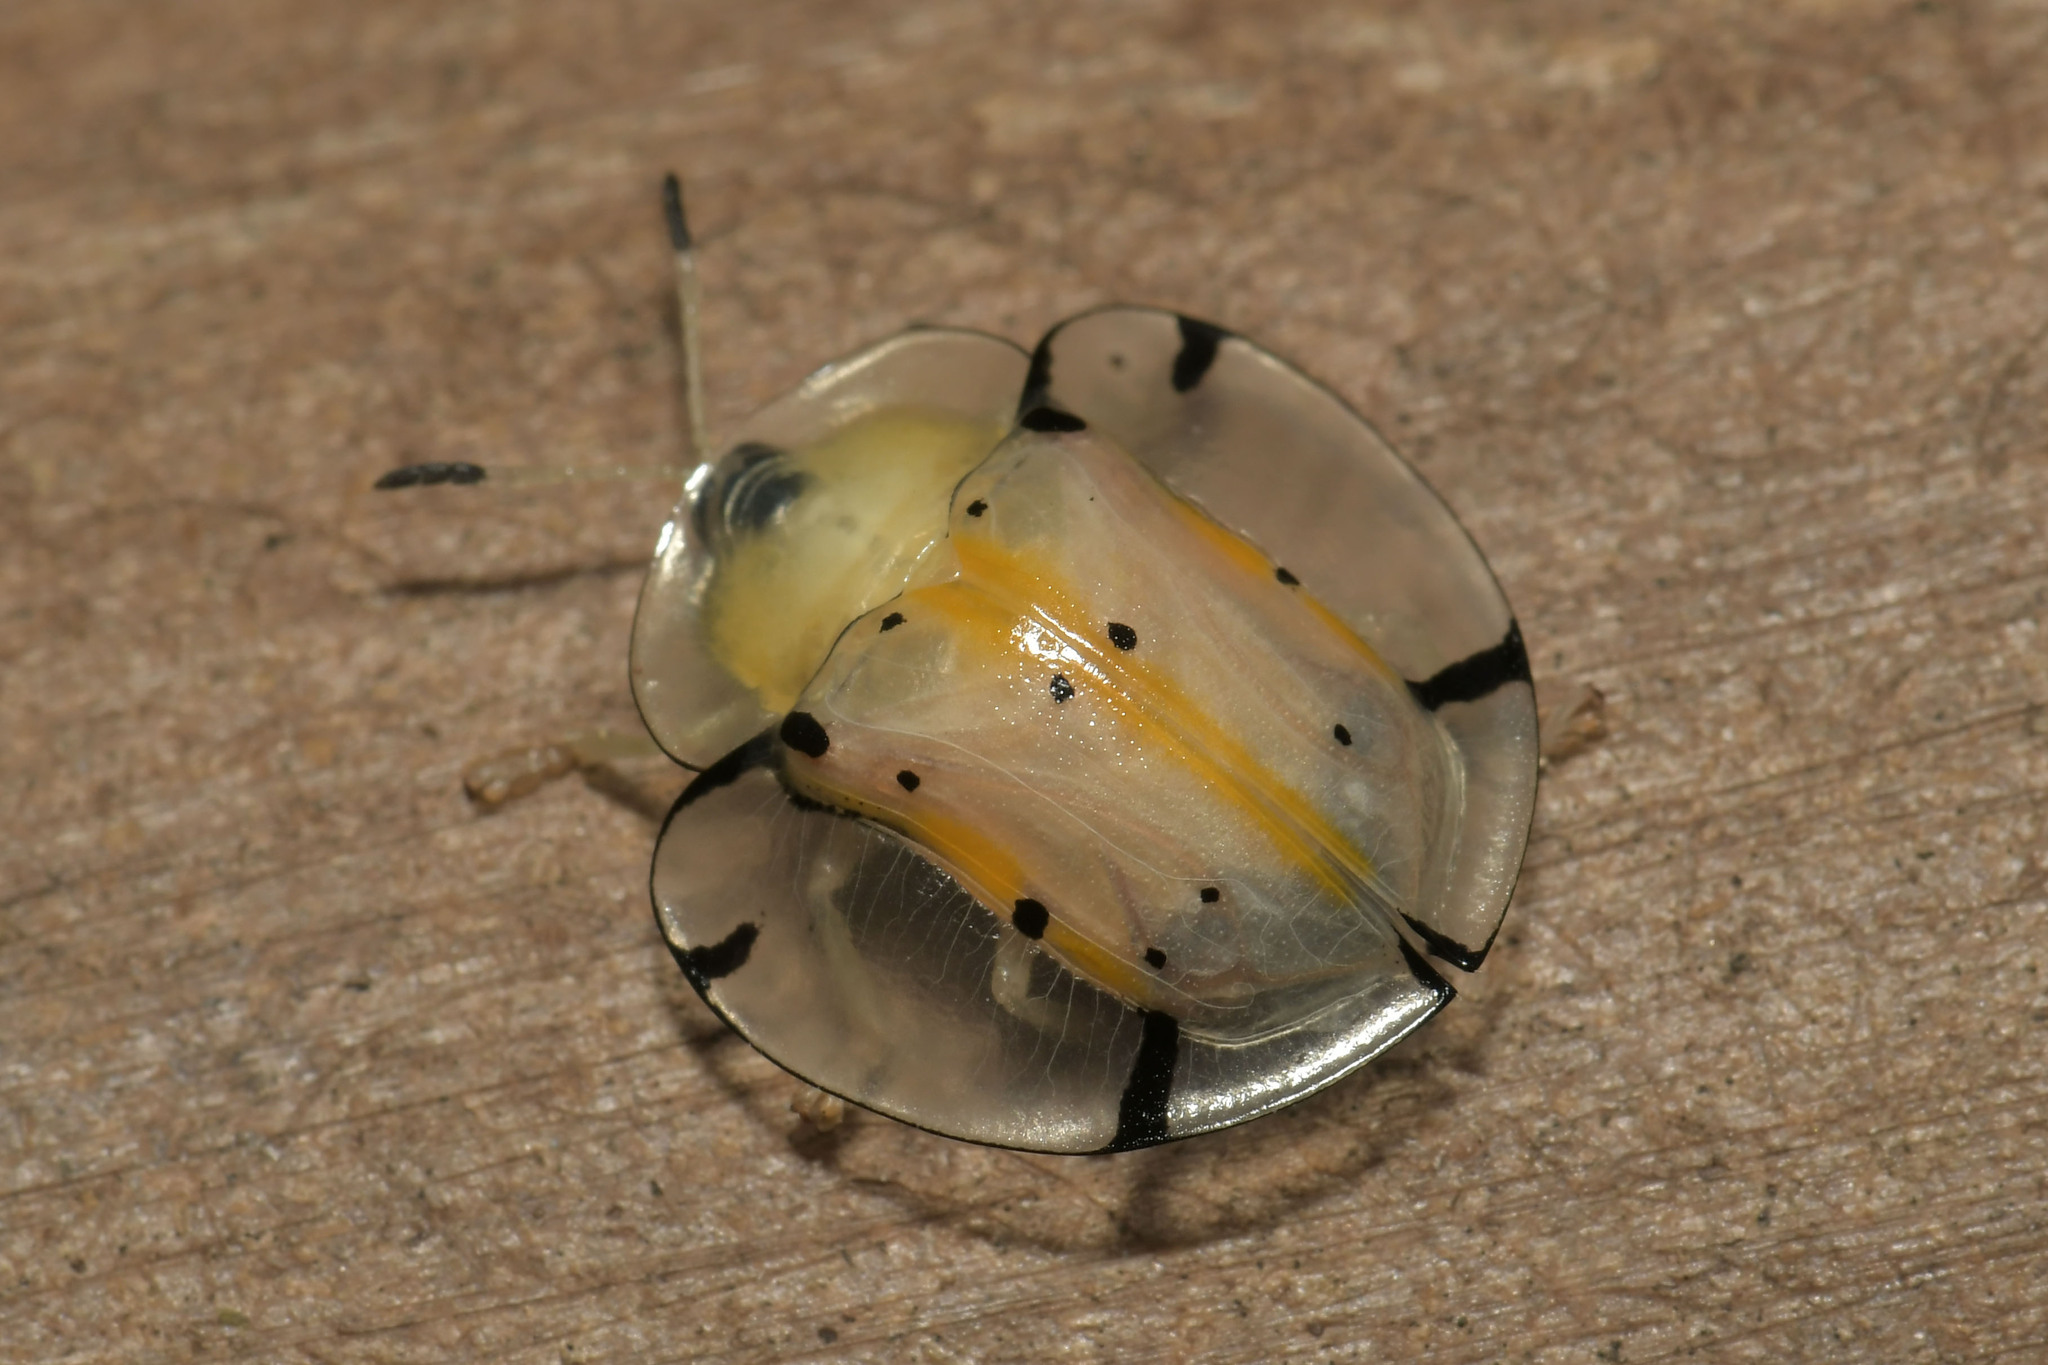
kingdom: Animalia
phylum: Arthropoda
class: Insecta
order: Coleoptera
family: Chrysomelidae
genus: Aspidimorpha
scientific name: Aspidimorpha miliaris
